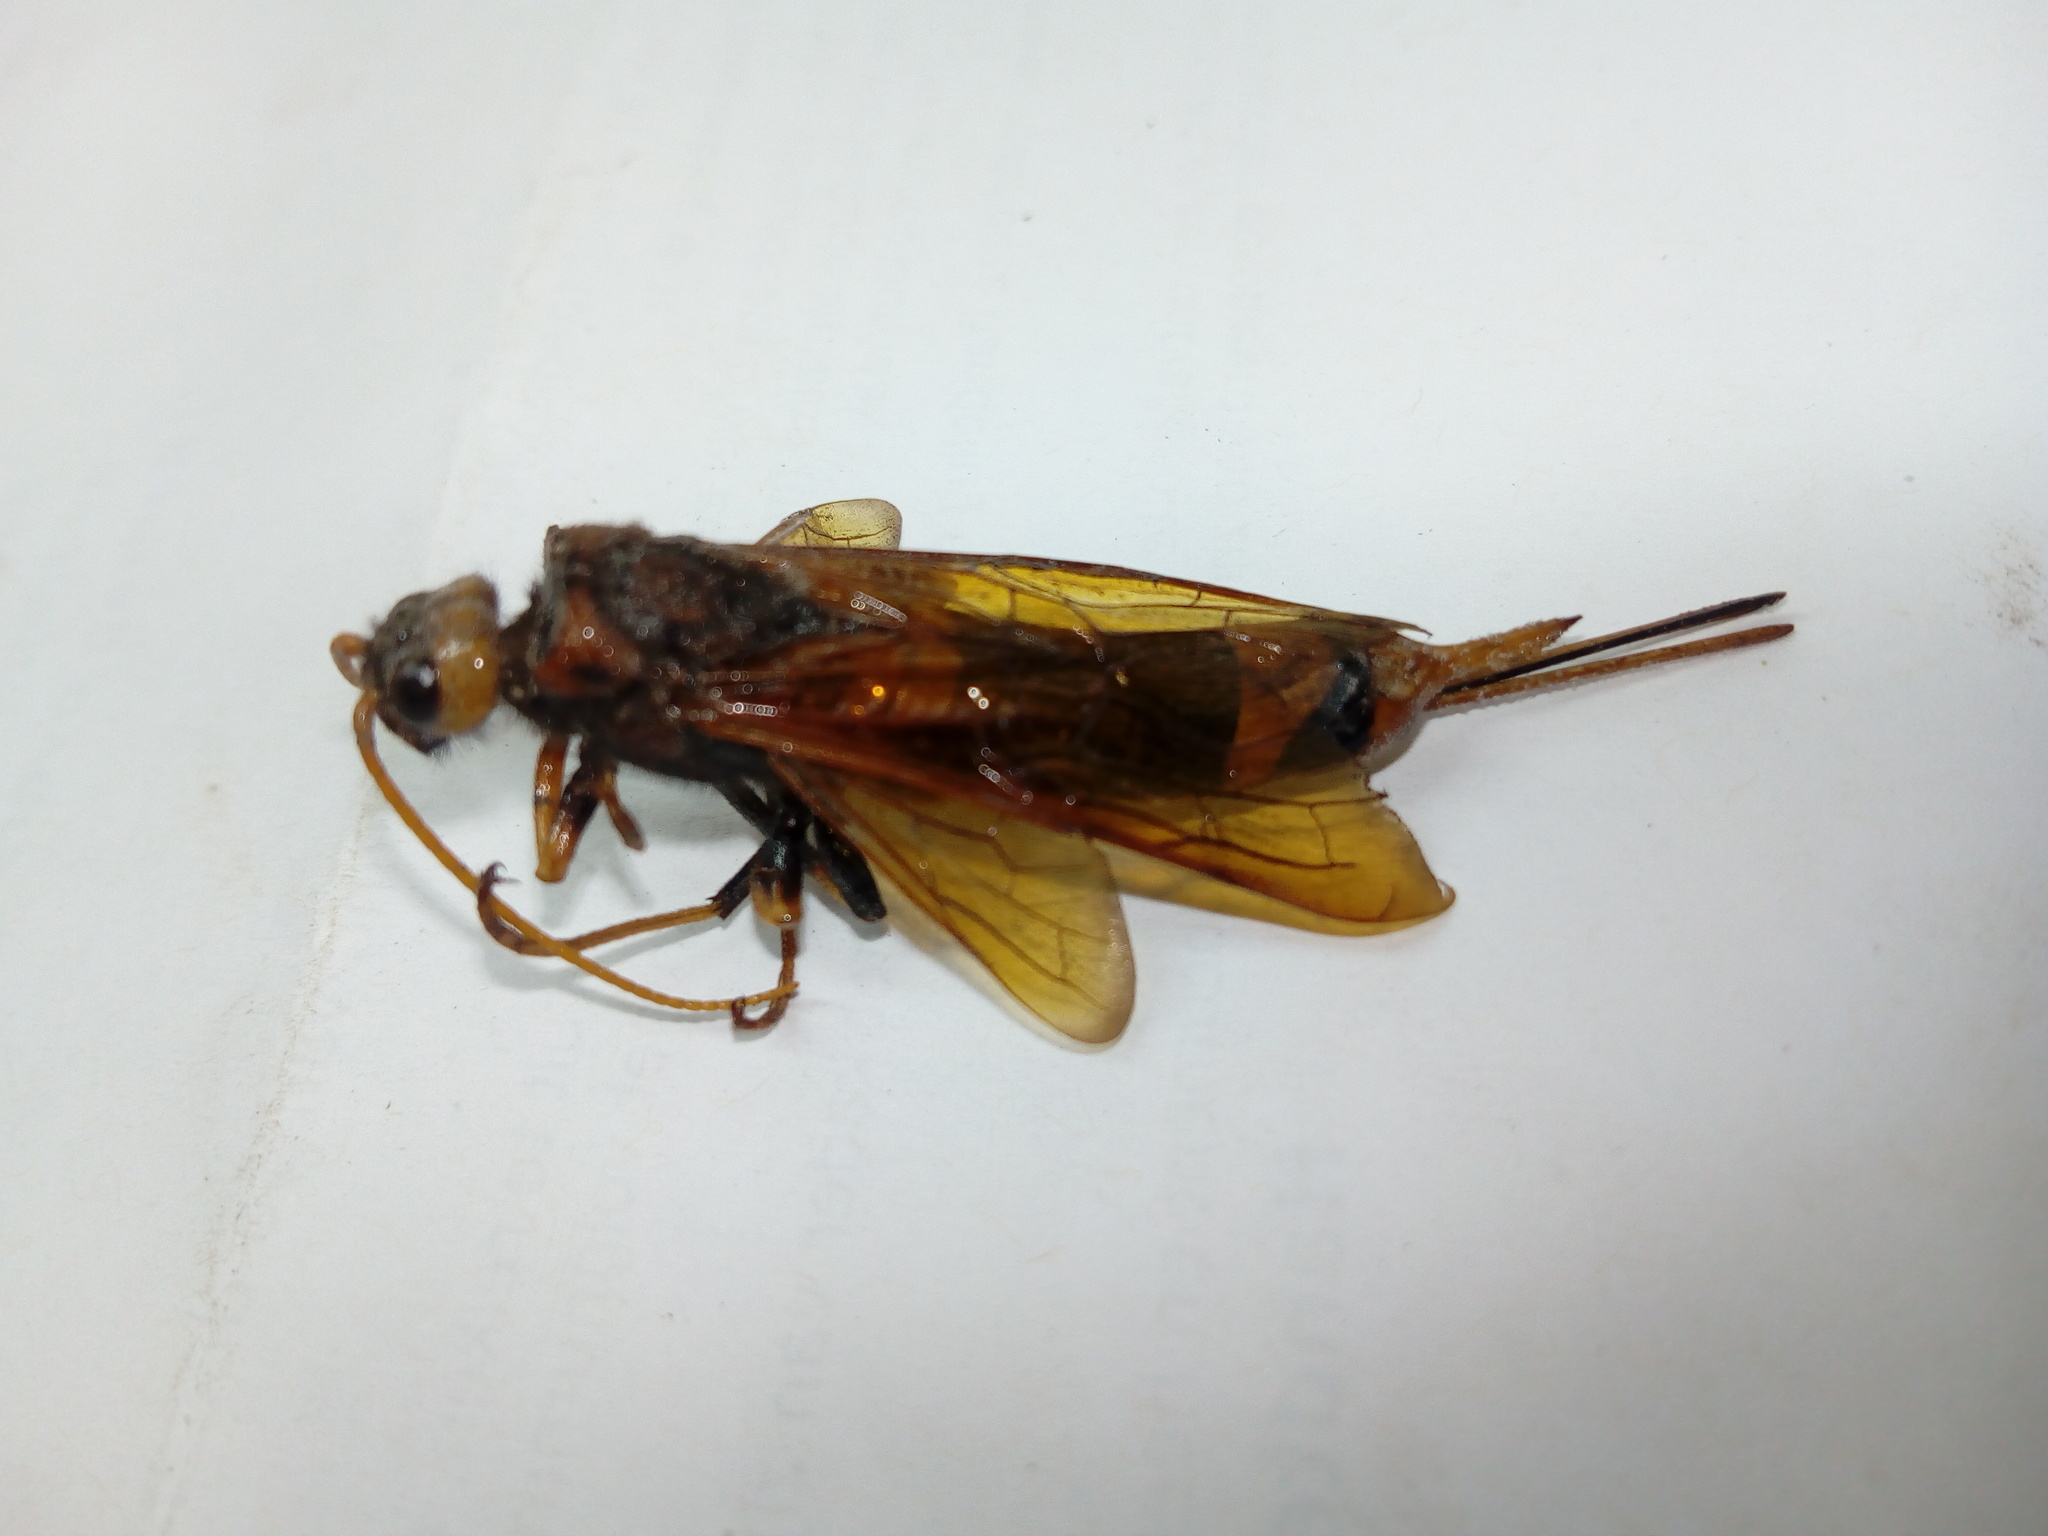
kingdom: Animalia
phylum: Arthropoda
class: Insecta
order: Hymenoptera
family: Siricidae
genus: Urocerus
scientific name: Urocerus sah
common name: Horntail wasp
